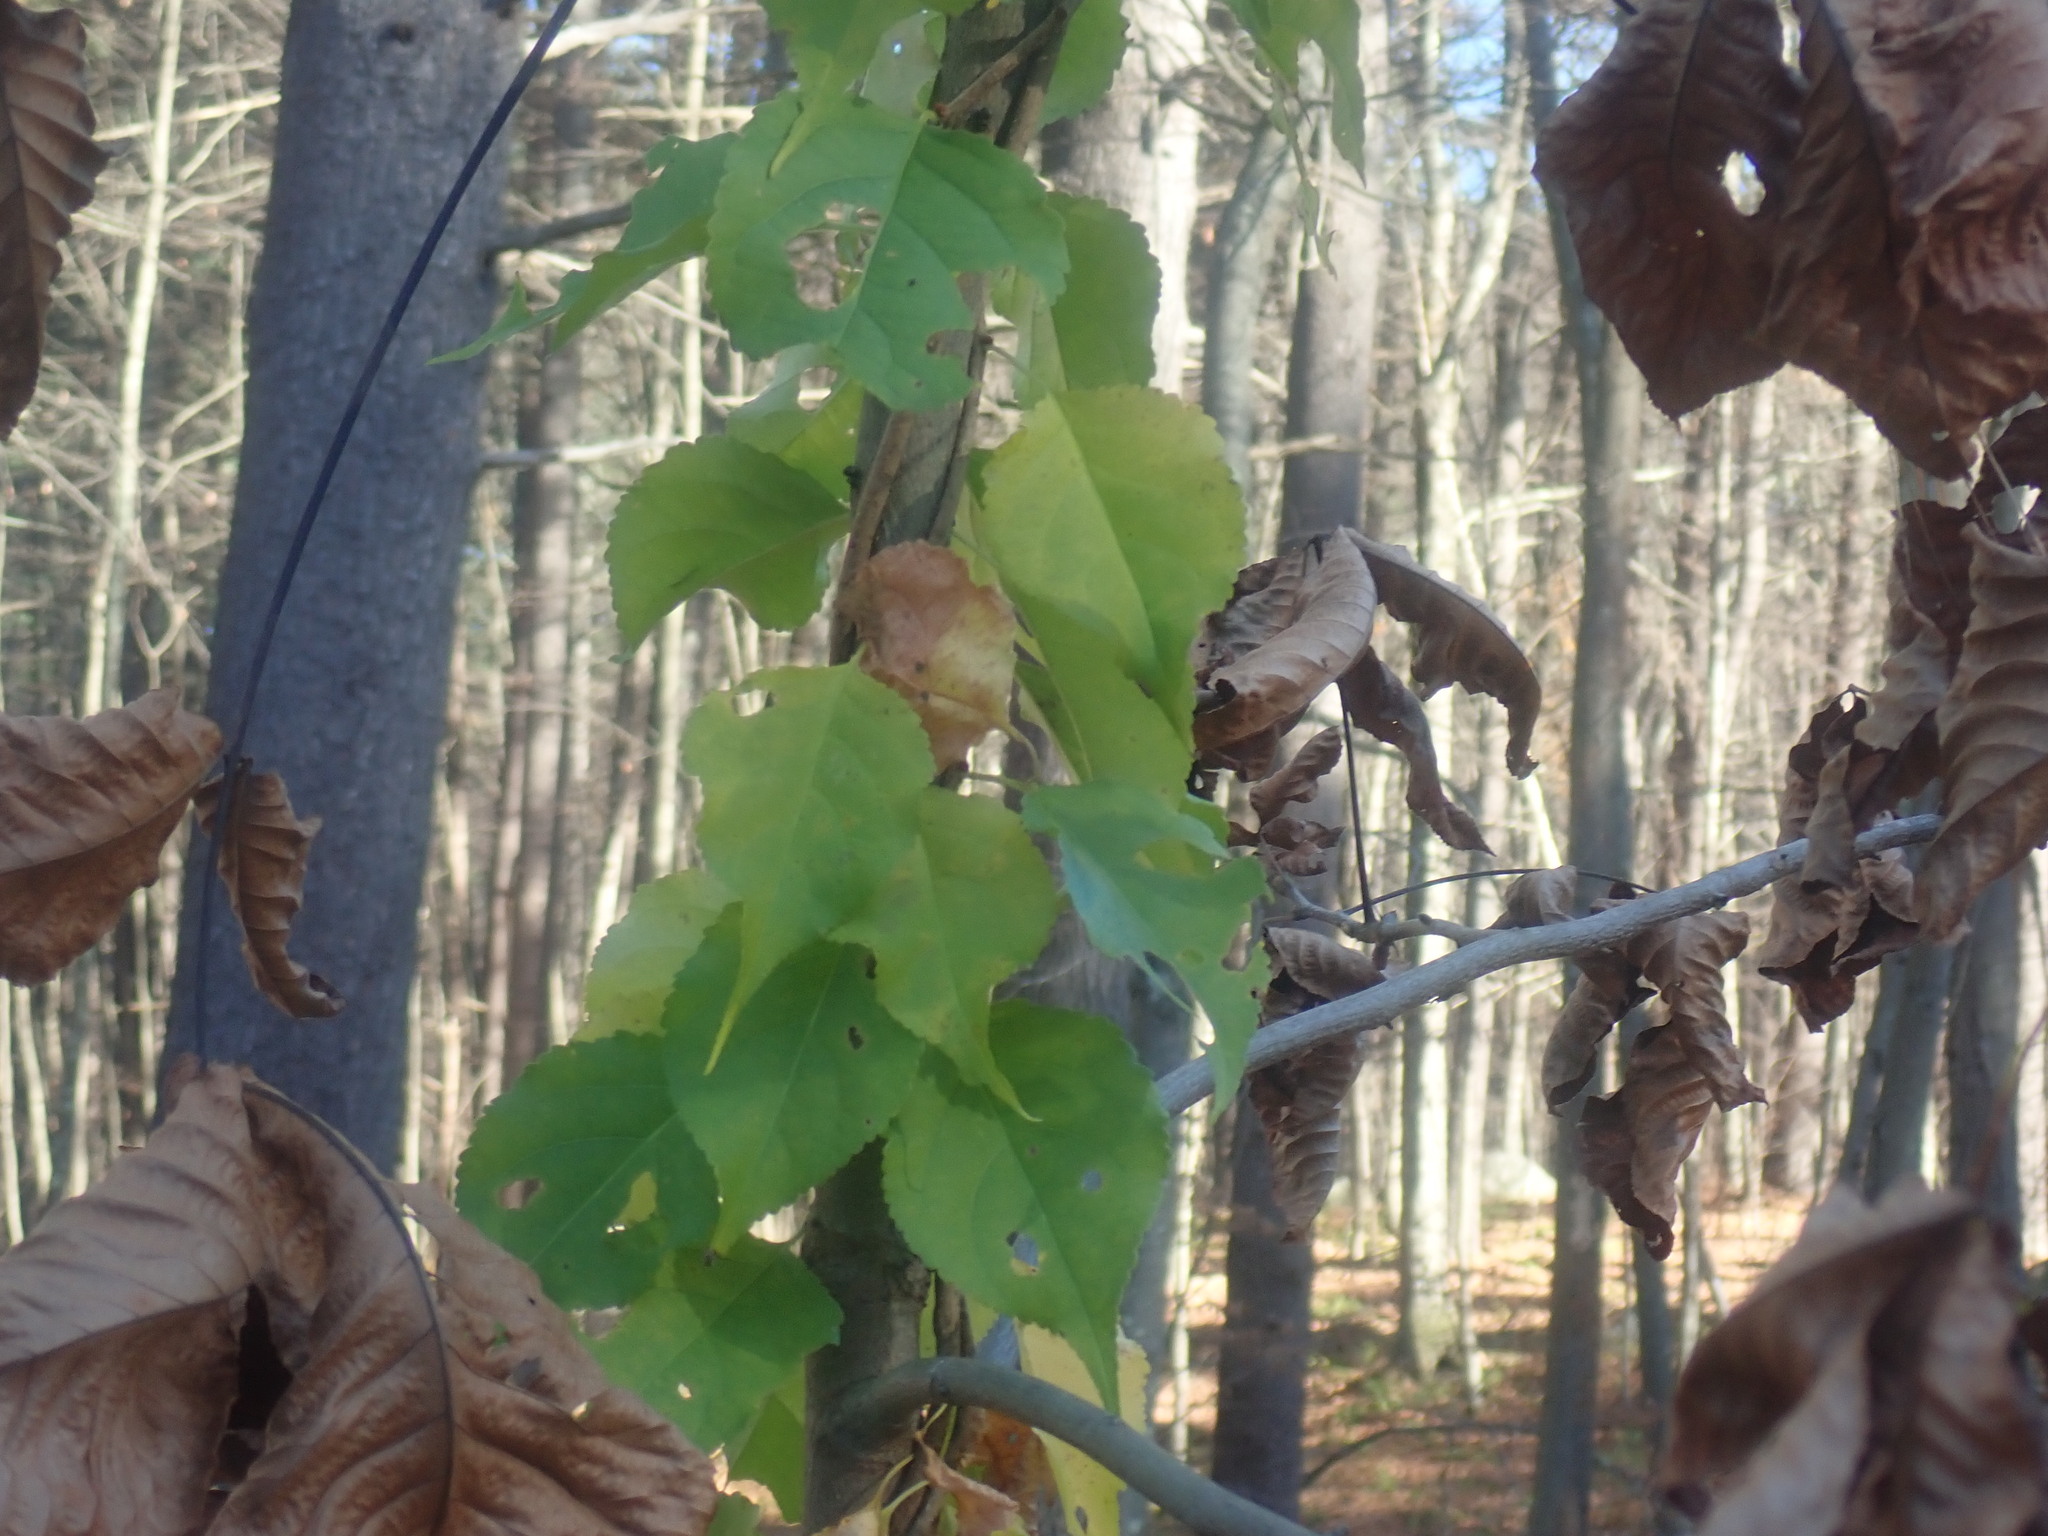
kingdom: Plantae
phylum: Tracheophyta
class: Magnoliopsida
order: Celastrales
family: Celastraceae
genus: Celastrus
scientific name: Celastrus orbiculatus
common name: Oriental bittersweet
